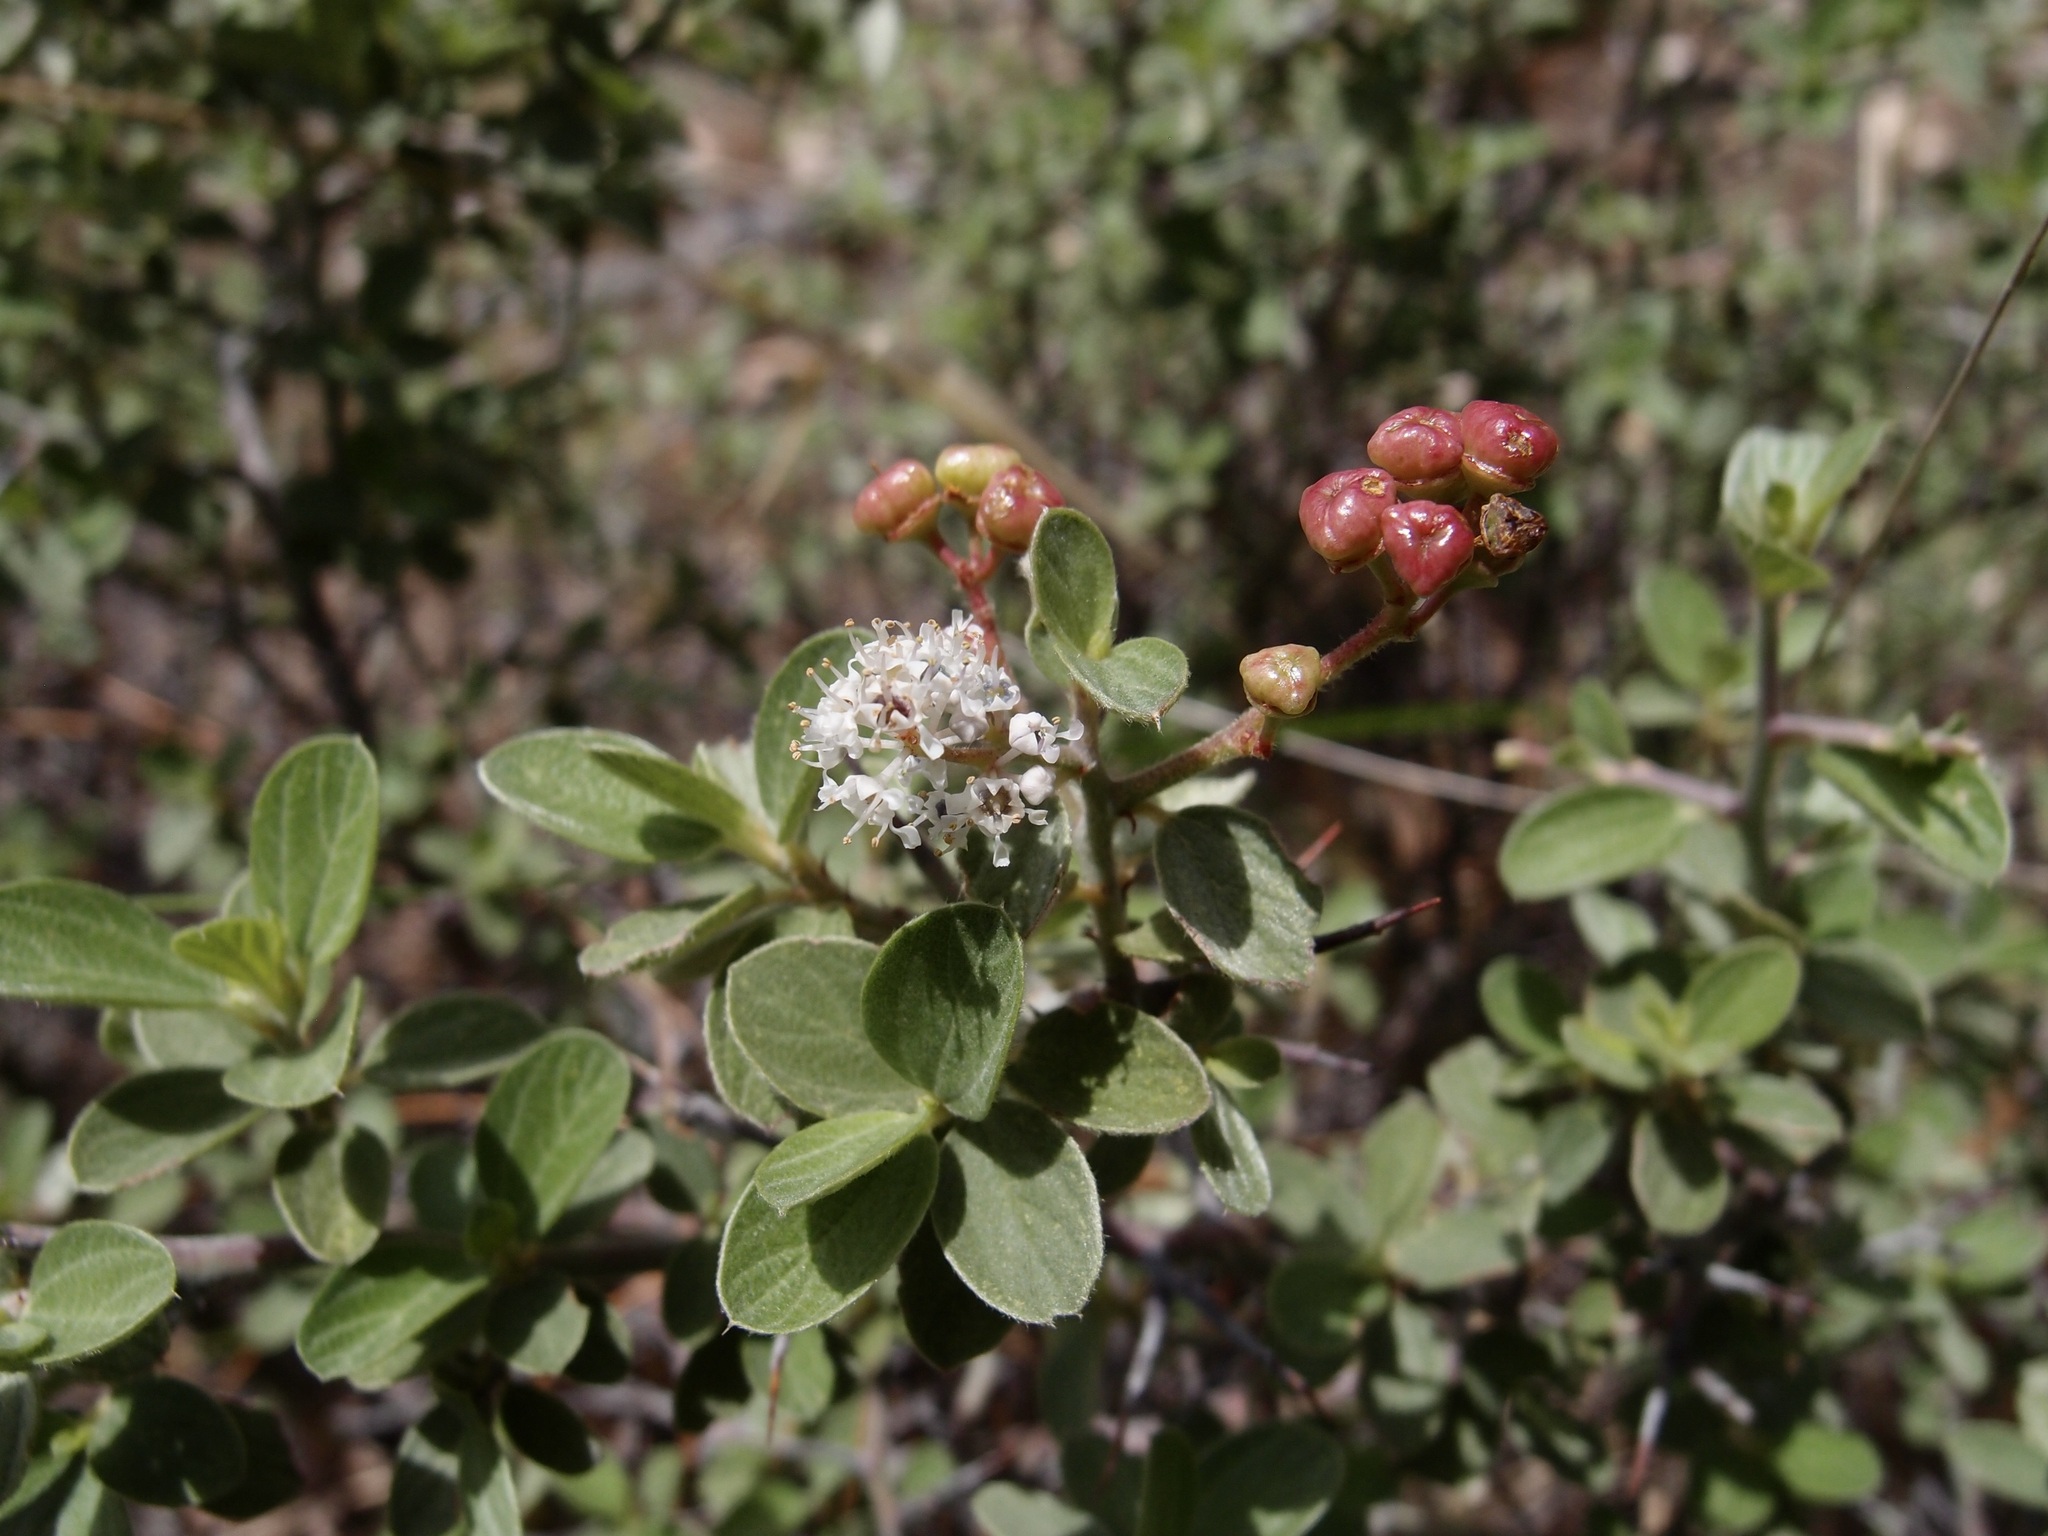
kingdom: Plantae
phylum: Tracheophyta
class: Magnoliopsida
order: Rosales
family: Rhamnaceae
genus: Ceanothus
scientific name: Ceanothus fendleri
